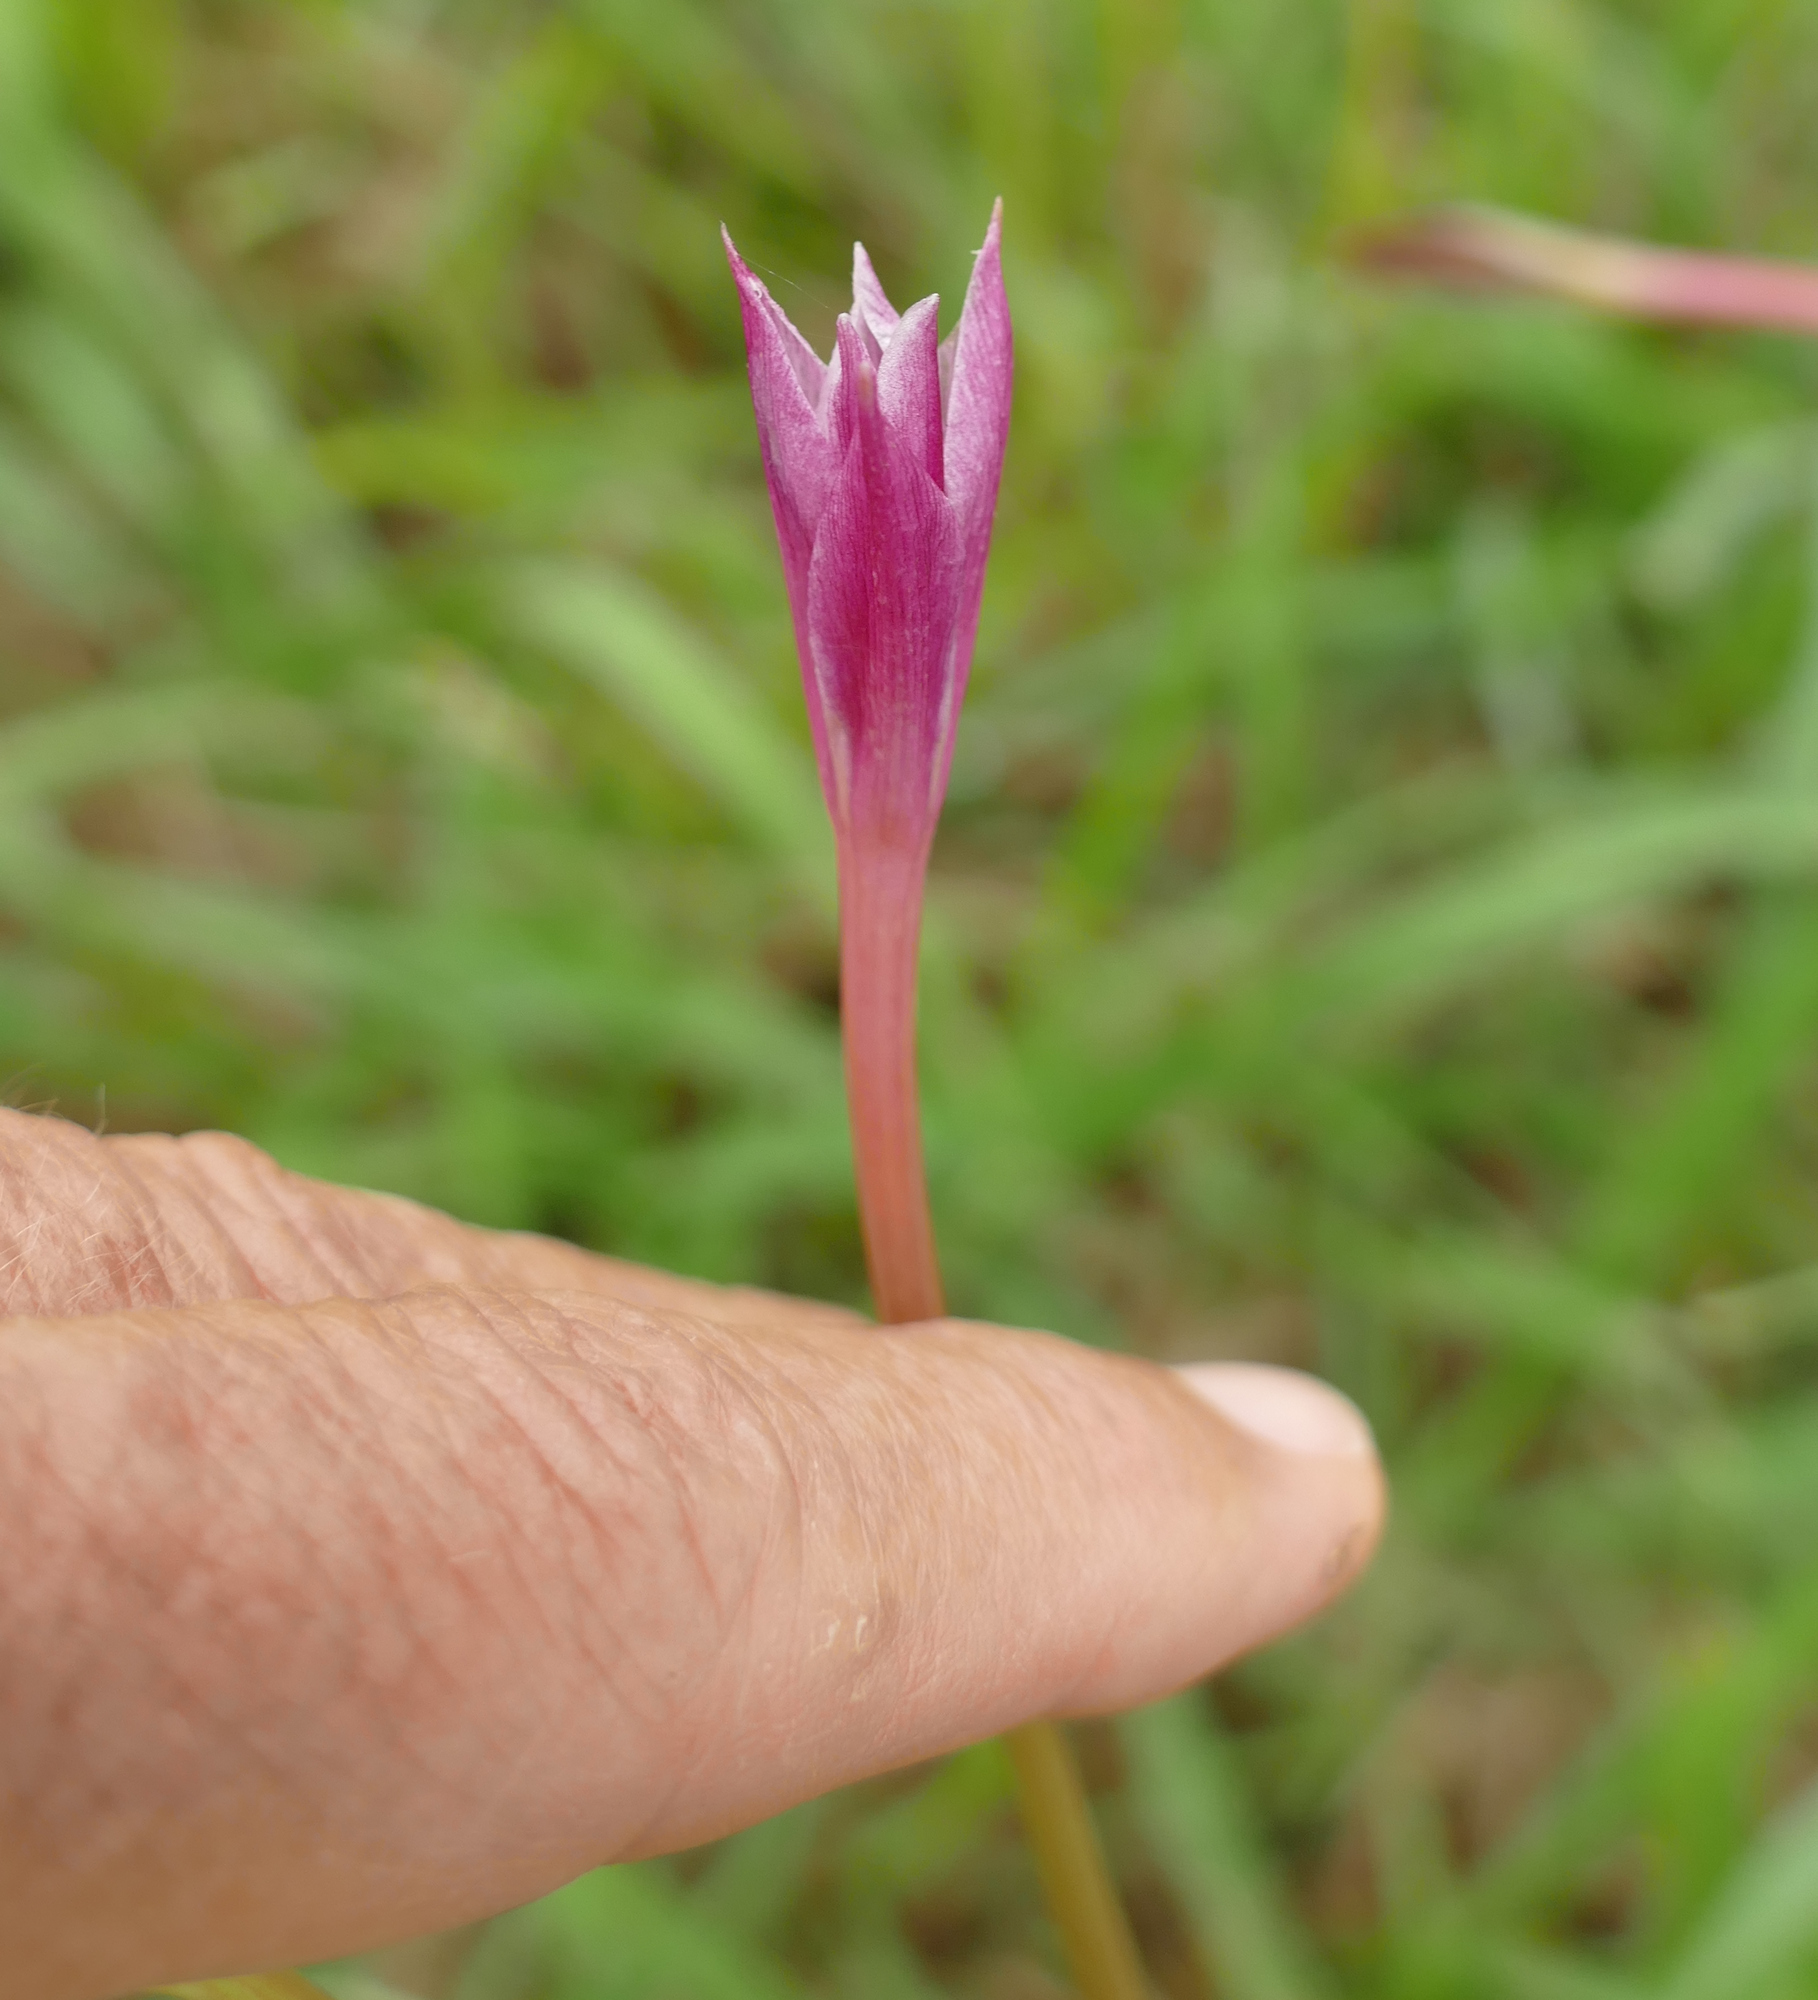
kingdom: Plantae
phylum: Tracheophyta
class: Liliopsida
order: Asparagales
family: Amaryllidaceae
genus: Zephyranthes
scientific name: Zephyranthes
